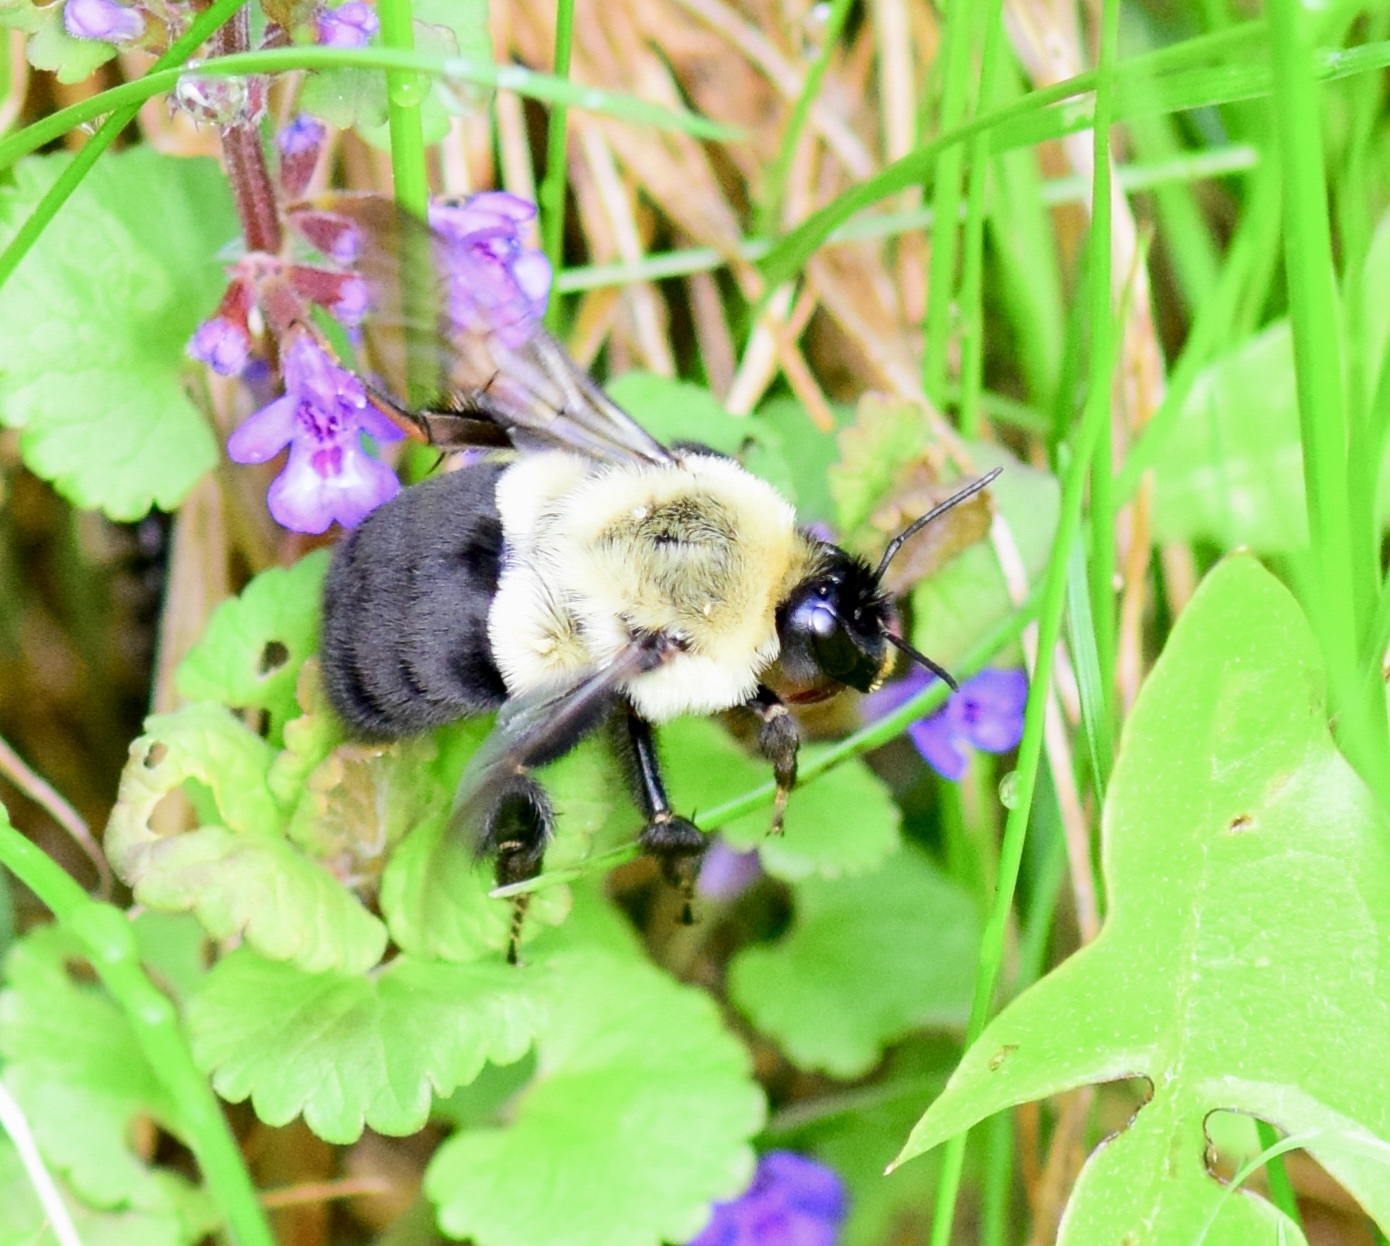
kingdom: Animalia
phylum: Arthropoda
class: Insecta
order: Hymenoptera
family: Apidae
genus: Bombus
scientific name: Bombus impatiens
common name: Common eastern bumble bee
